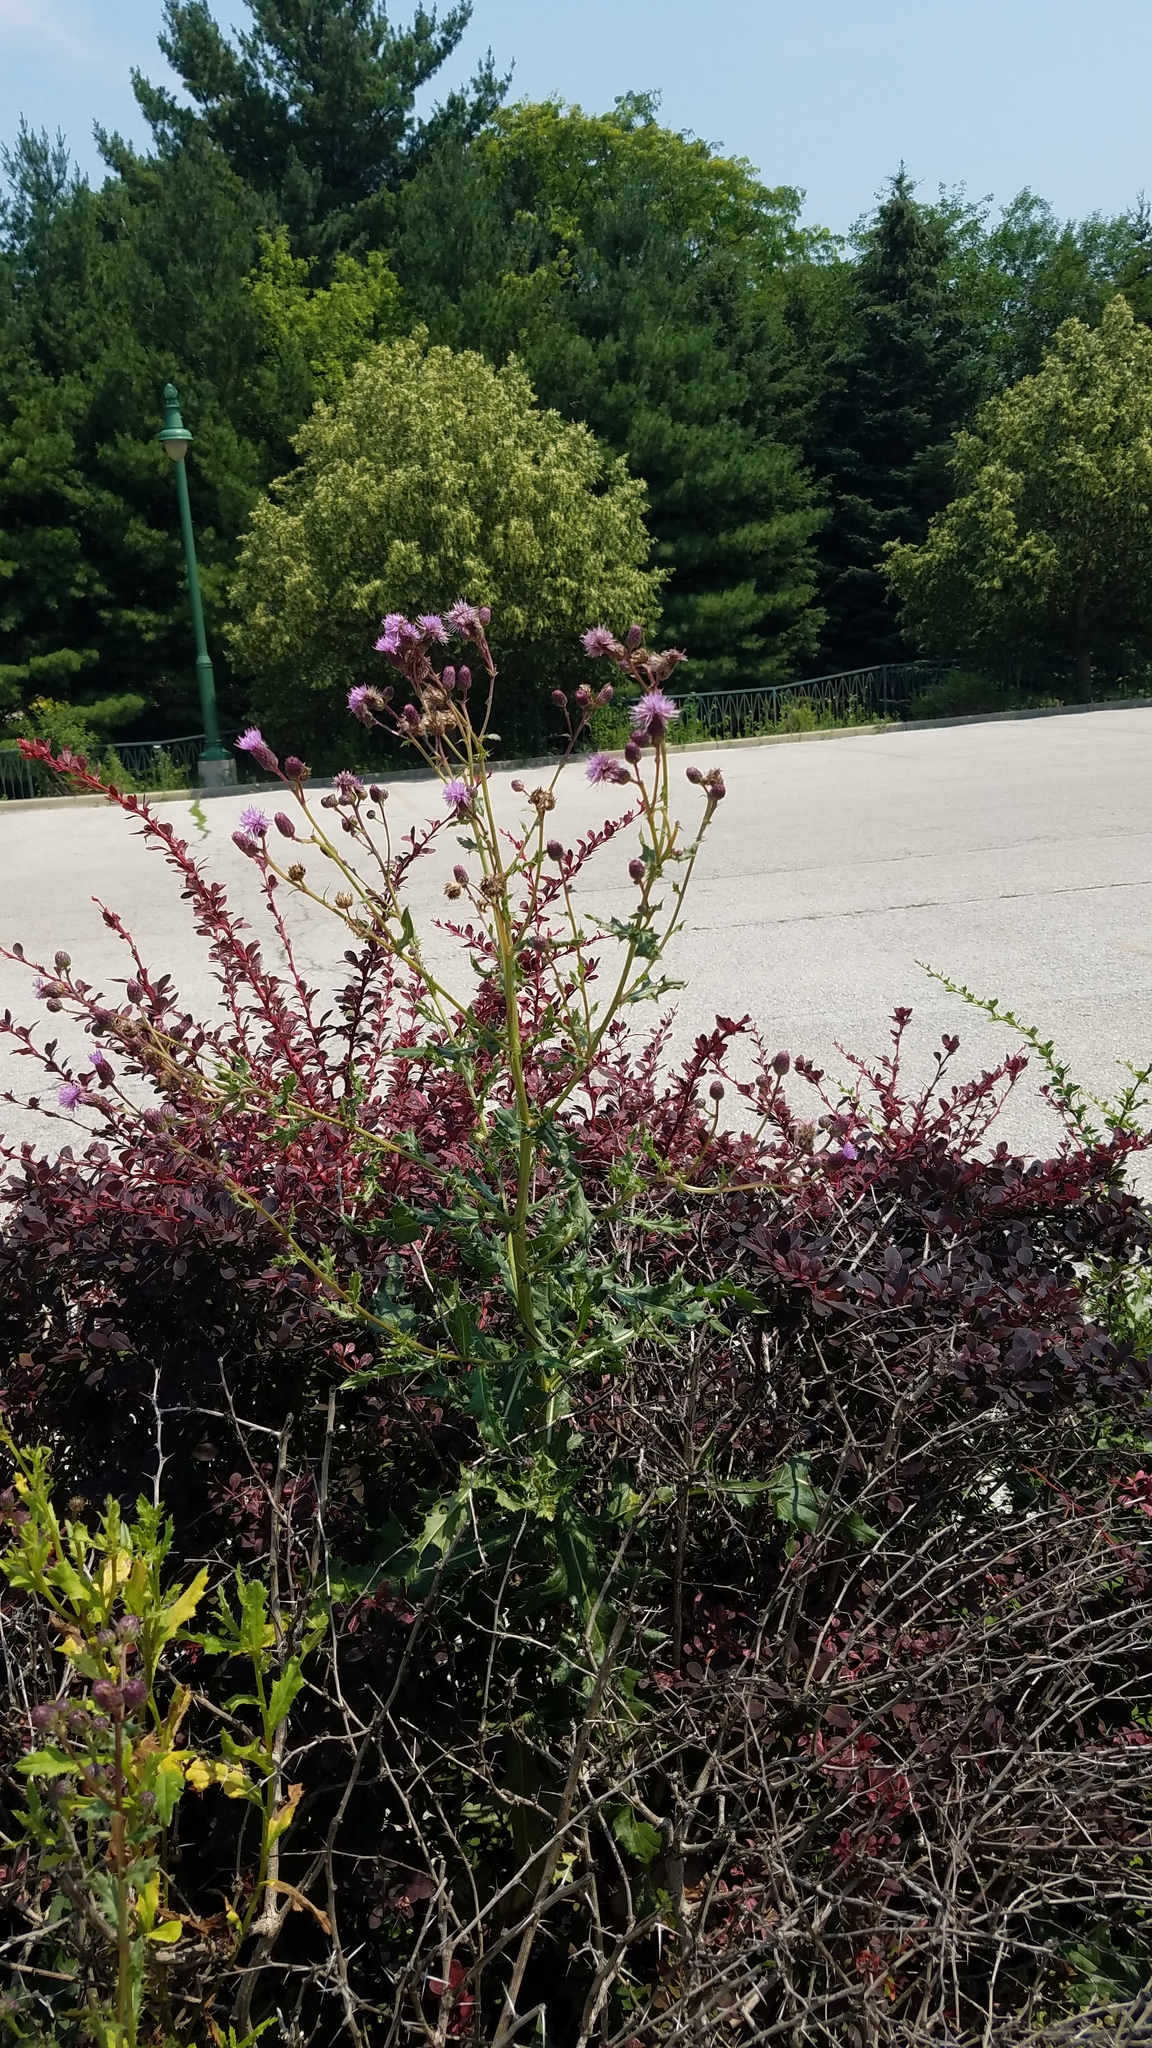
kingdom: Plantae
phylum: Tracheophyta
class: Magnoliopsida
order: Asterales
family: Asteraceae
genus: Cirsium
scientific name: Cirsium arvense
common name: Creeping thistle
